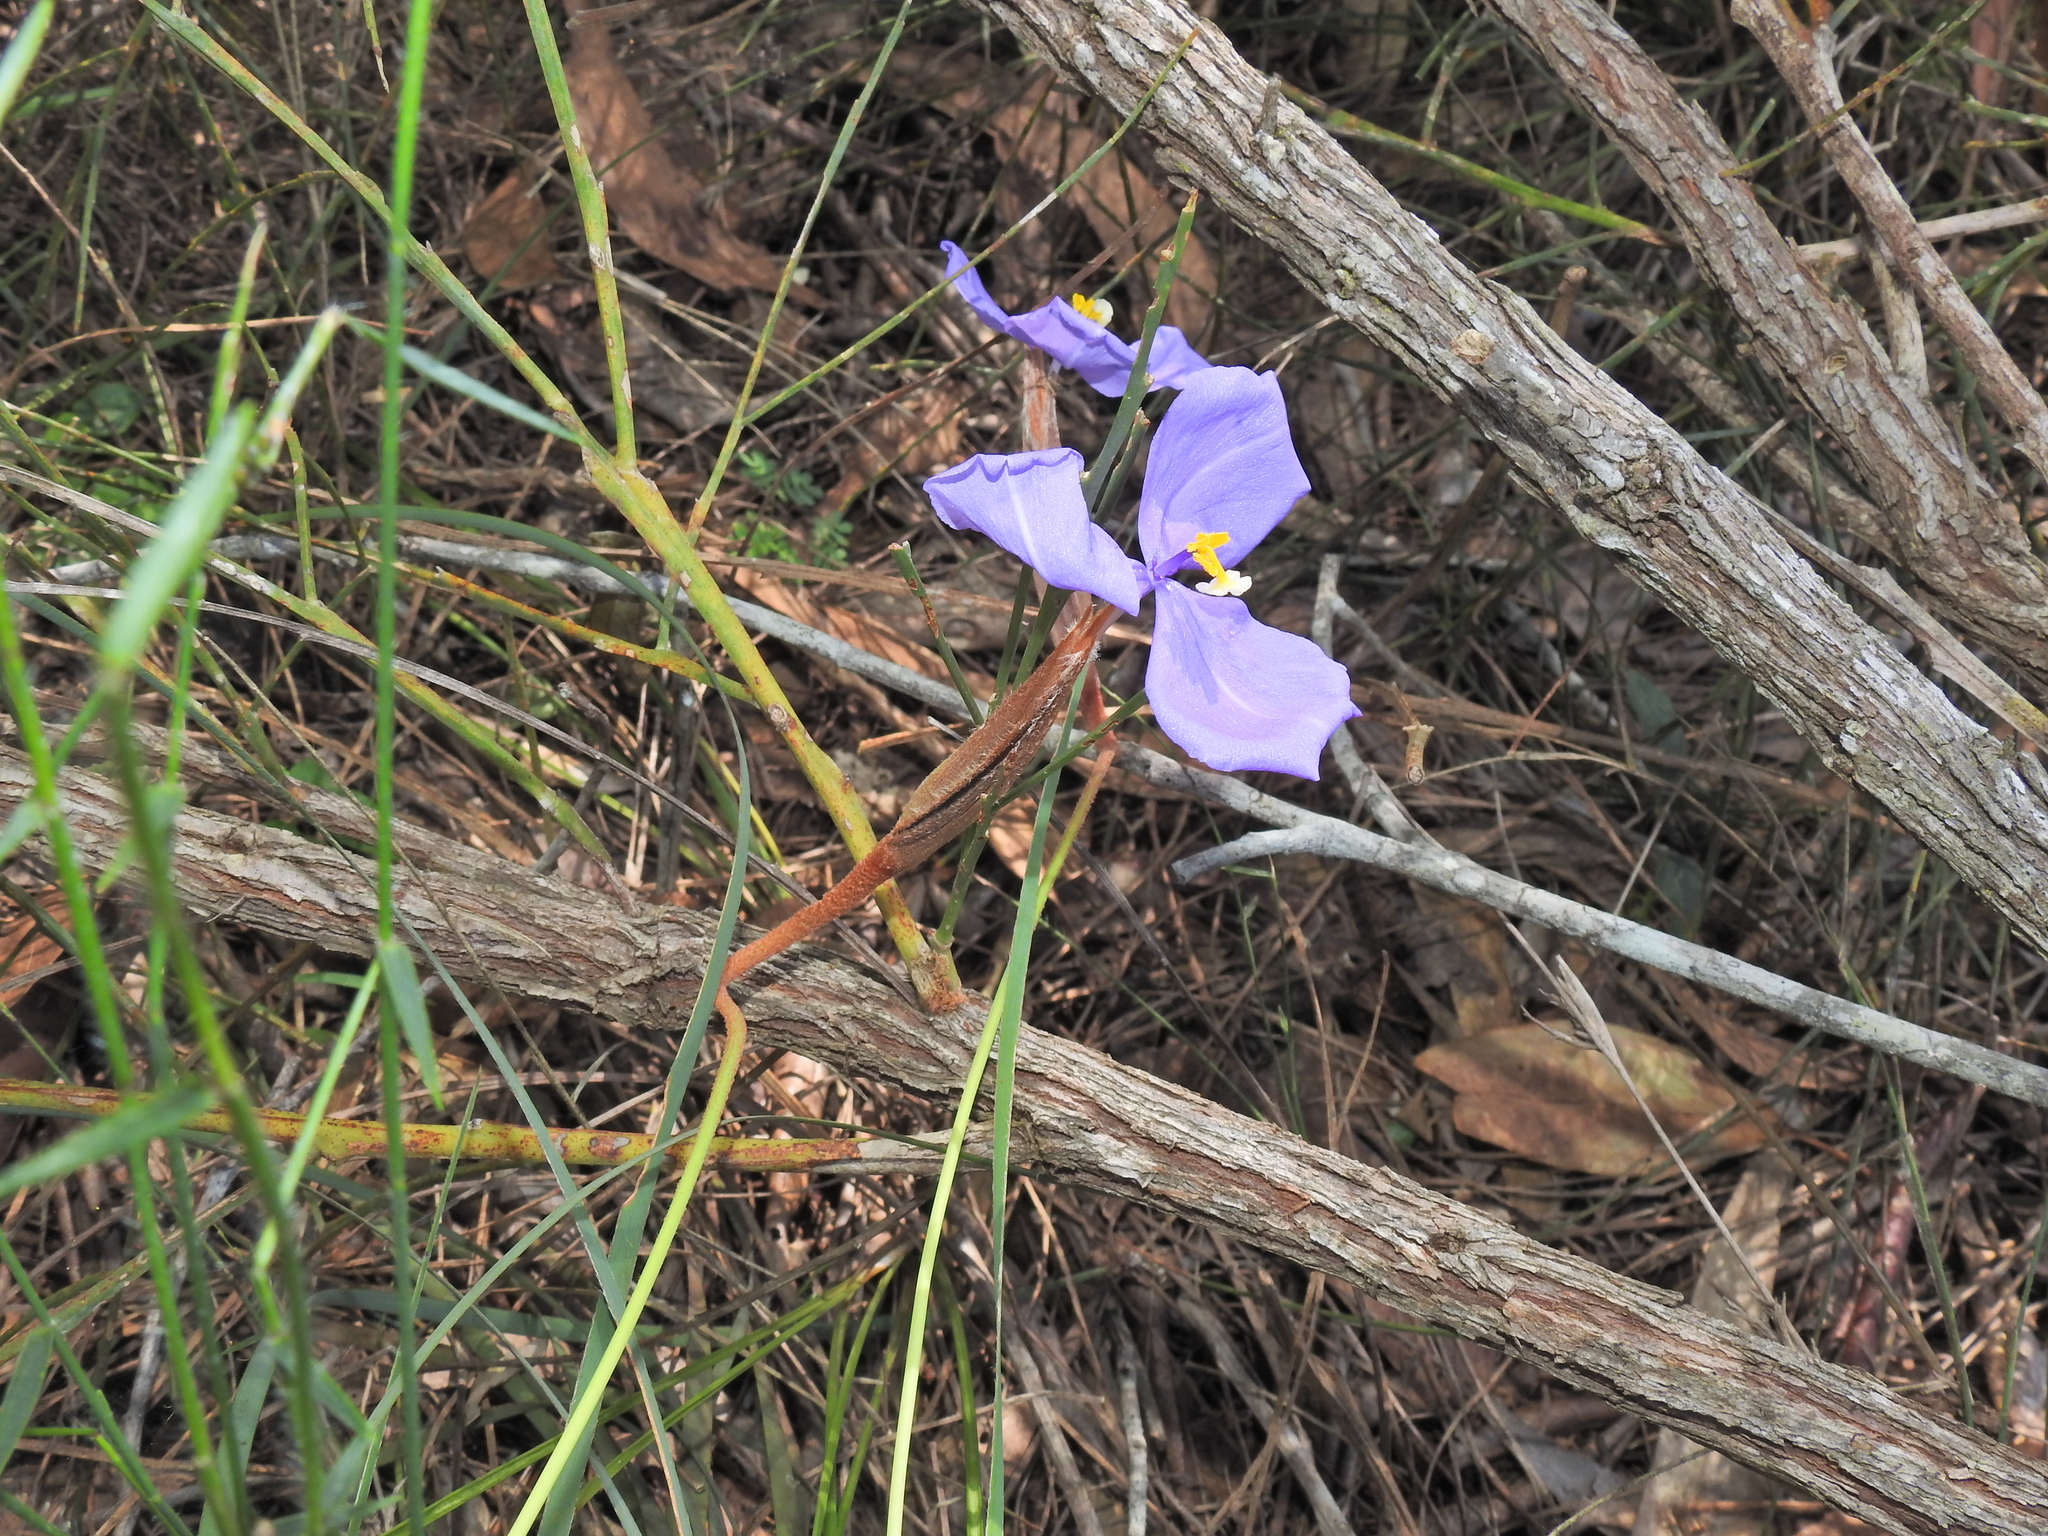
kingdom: Plantae
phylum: Tracheophyta
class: Liliopsida
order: Asparagales
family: Iridaceae
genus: Patersonia
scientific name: Patersonia sericea
